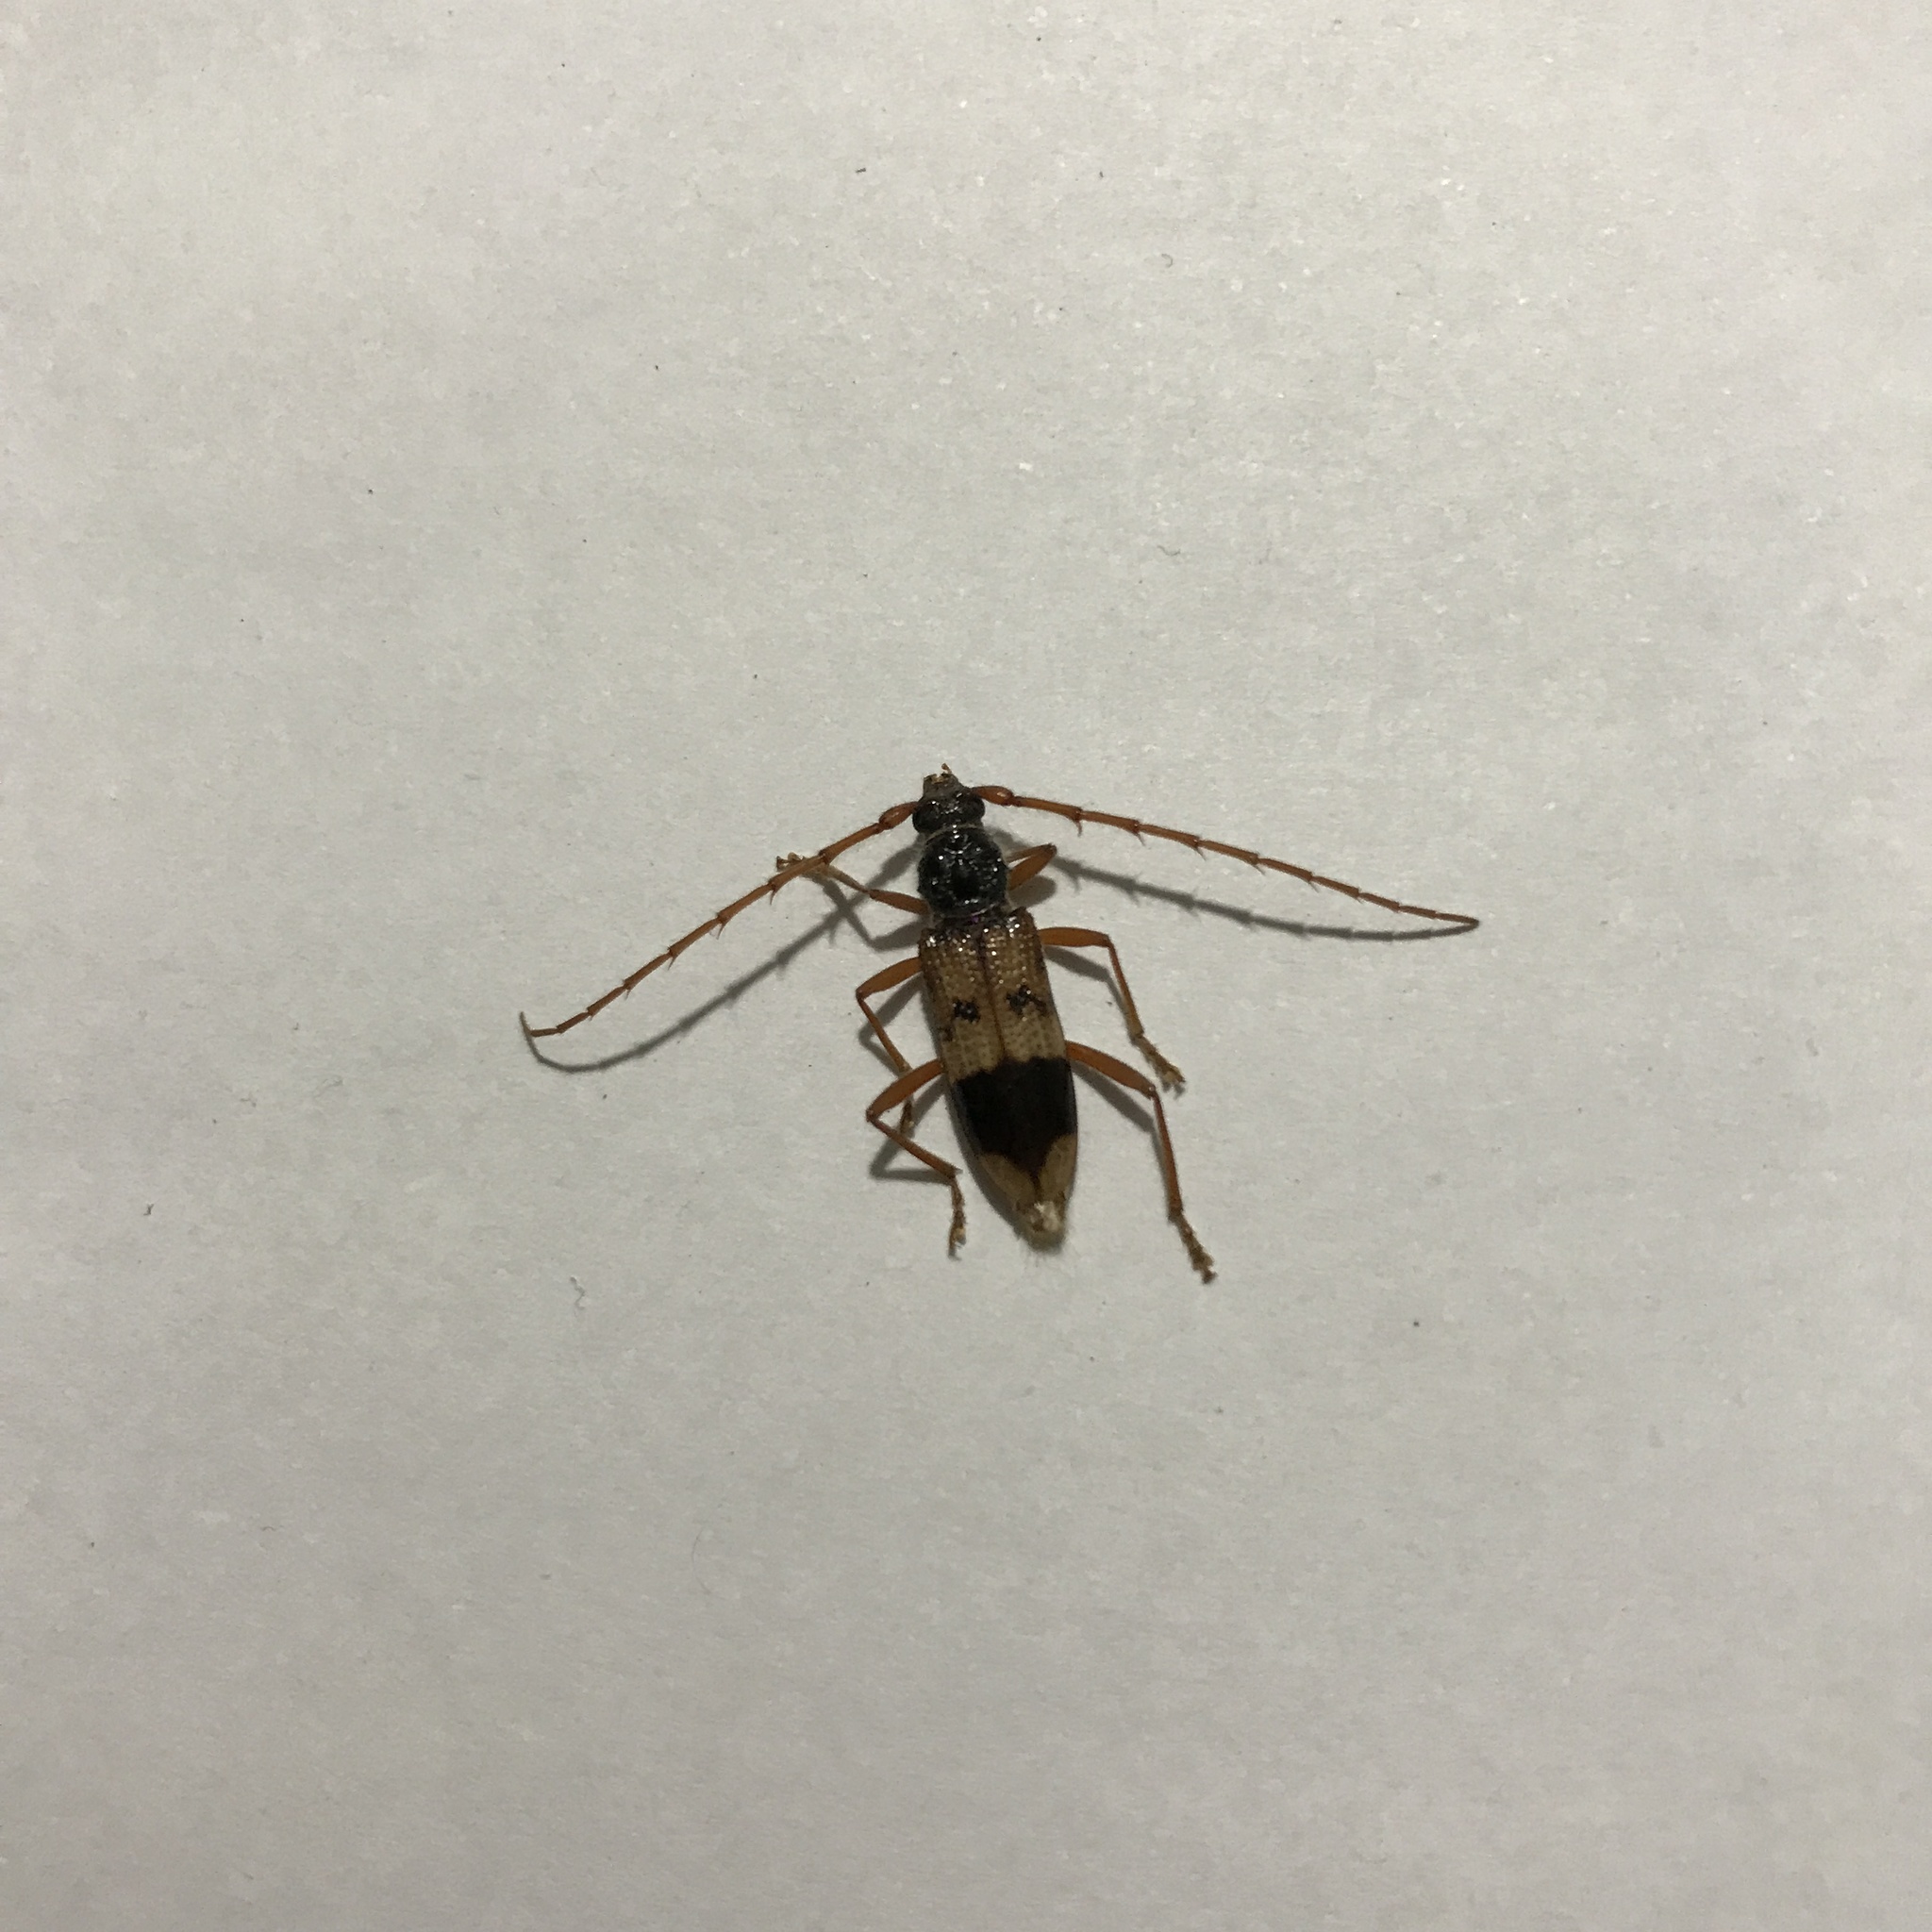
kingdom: Animalia
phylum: Arthropoda
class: Insecta
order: Coleoptera
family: Cerambycidae
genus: Phoracantha
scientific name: Phoracantha recurva
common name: Eucalyptus longhorned borer
